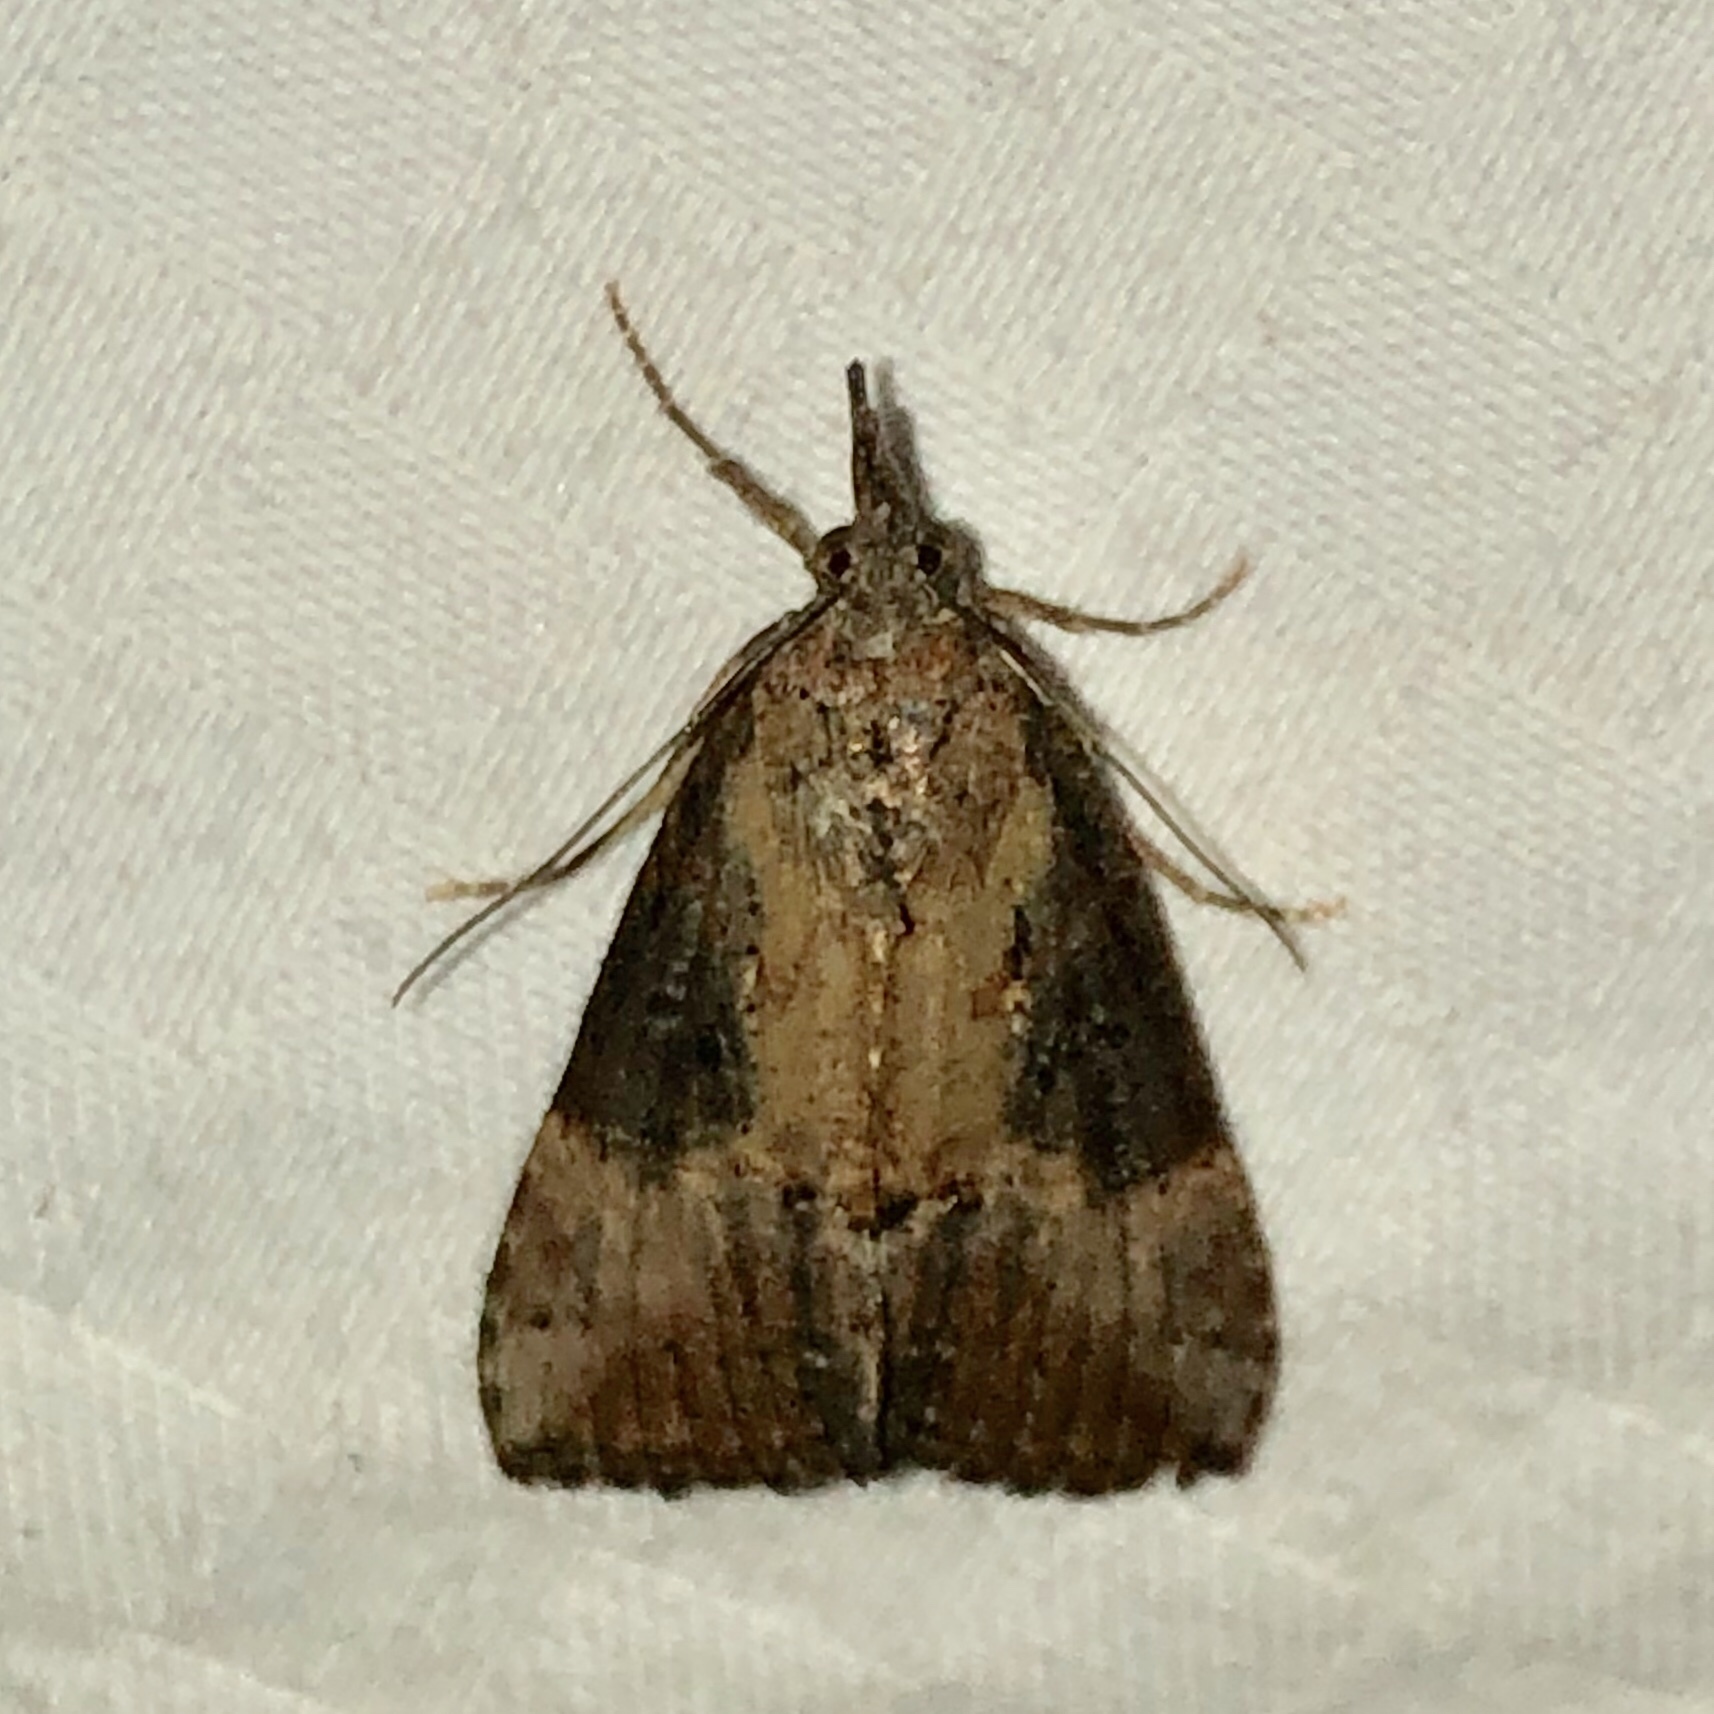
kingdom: Animalia
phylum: Arthropoda
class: Insecta
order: Lepidoptera
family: Erebidae
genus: Hypena
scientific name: Hypena scabra
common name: Green cloverworm
